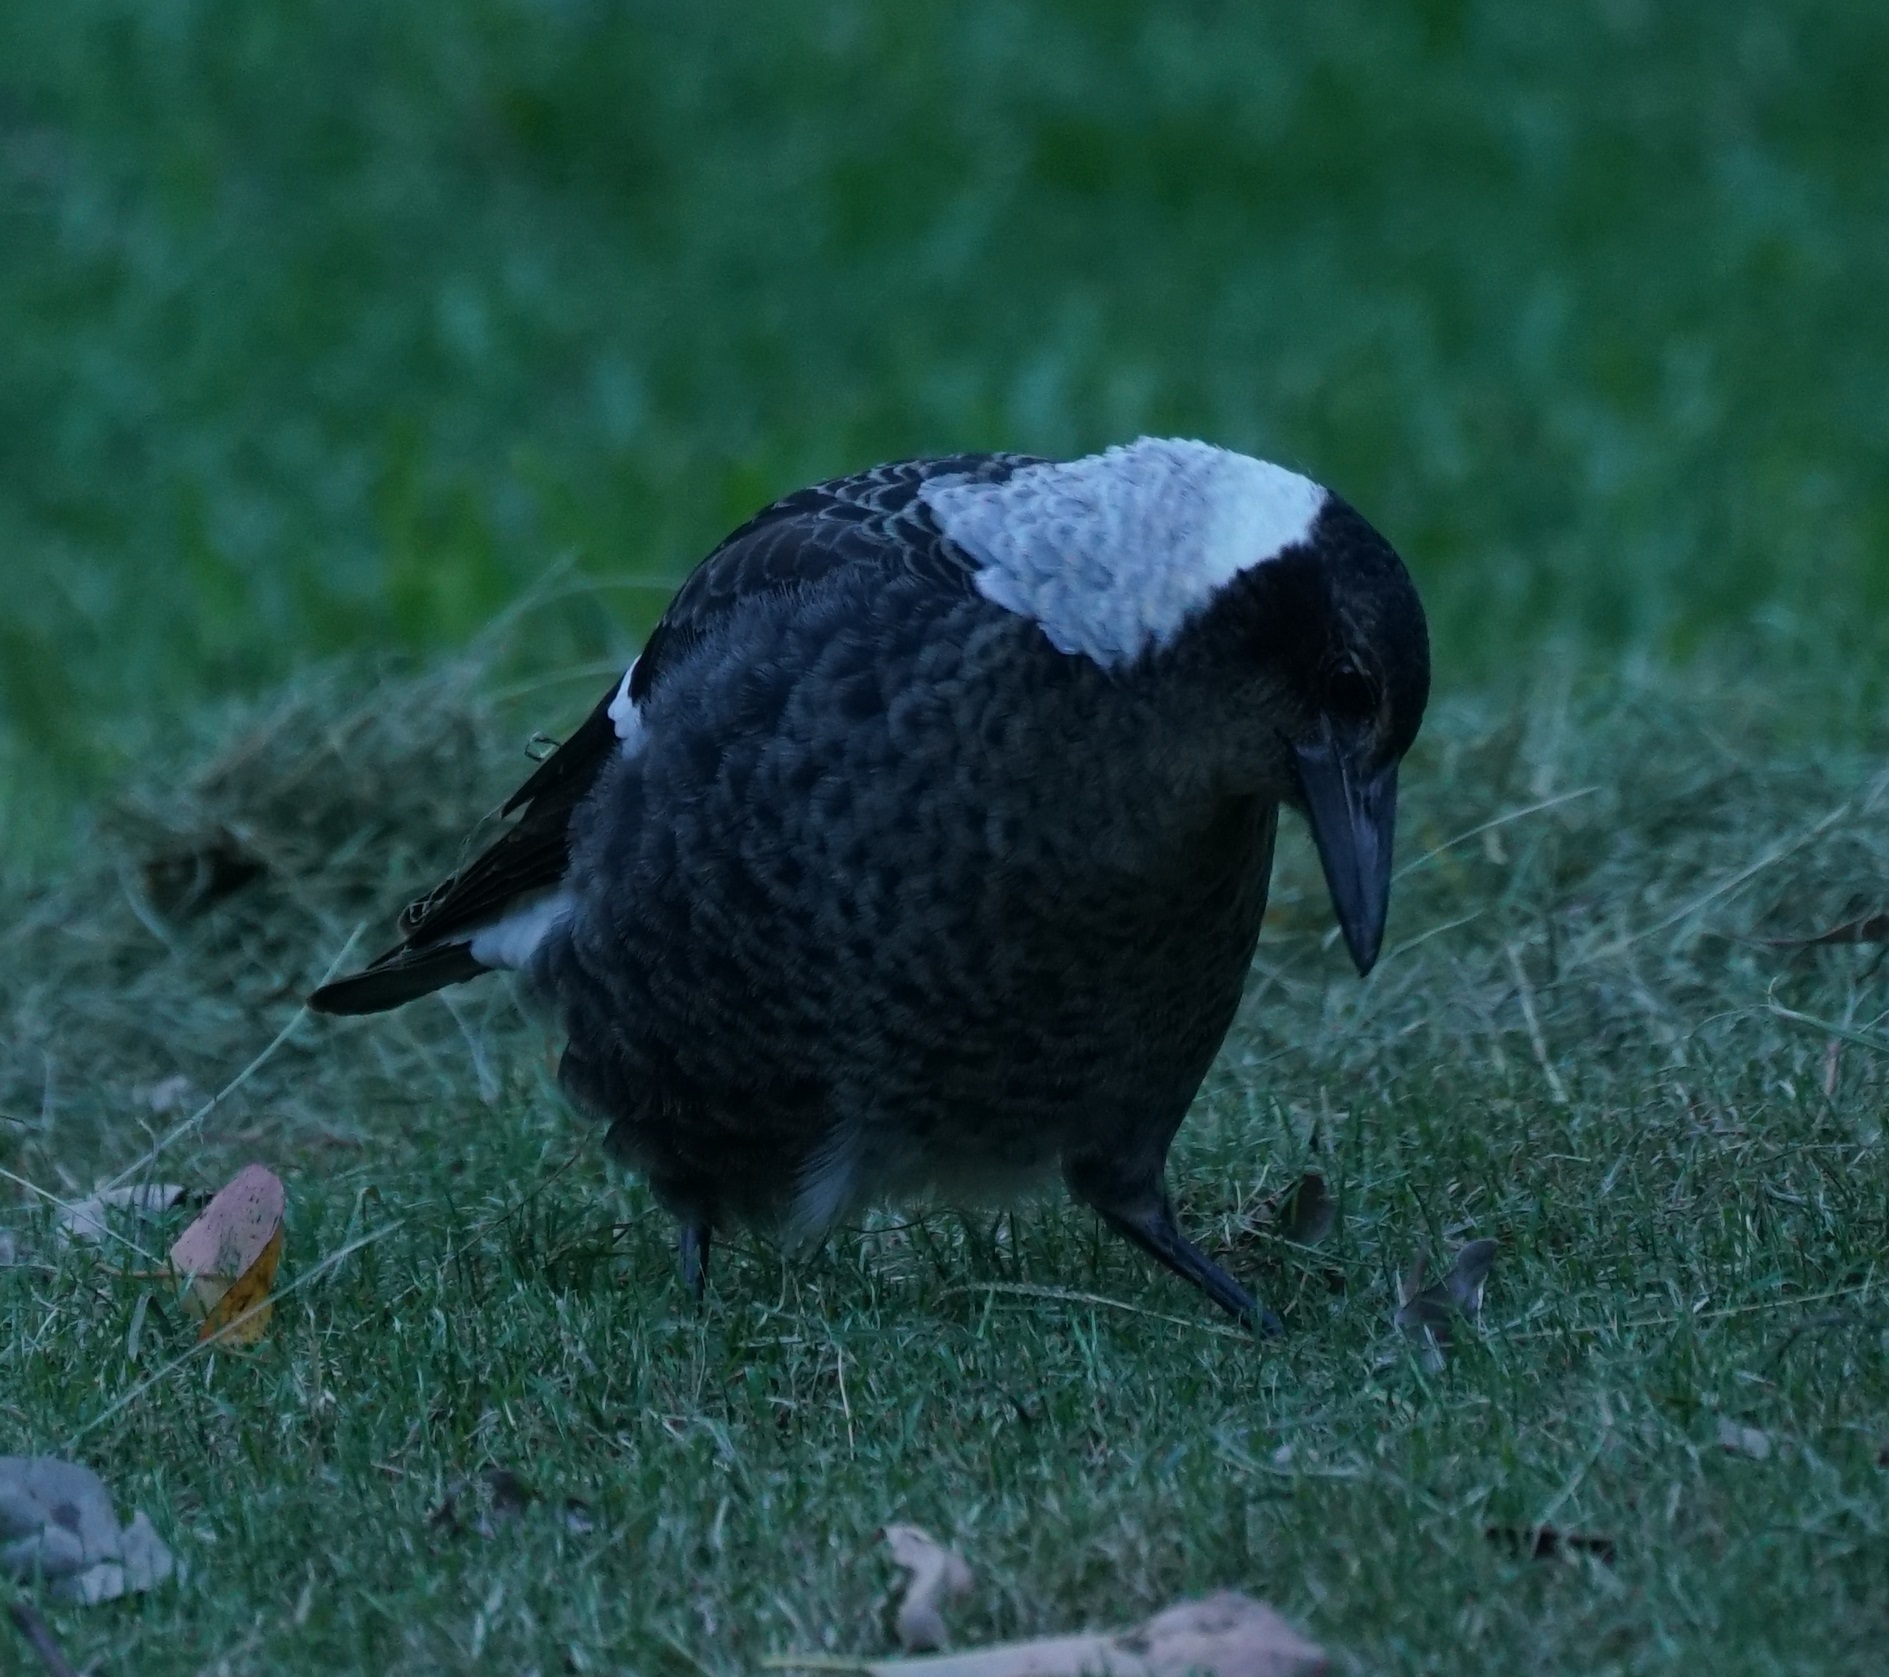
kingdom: Animalia
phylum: Chordata
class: Aves
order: Passeriformes
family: Cracticidae
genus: Gymnorhina
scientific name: Gymnorhina tibicen
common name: Australian magpie
